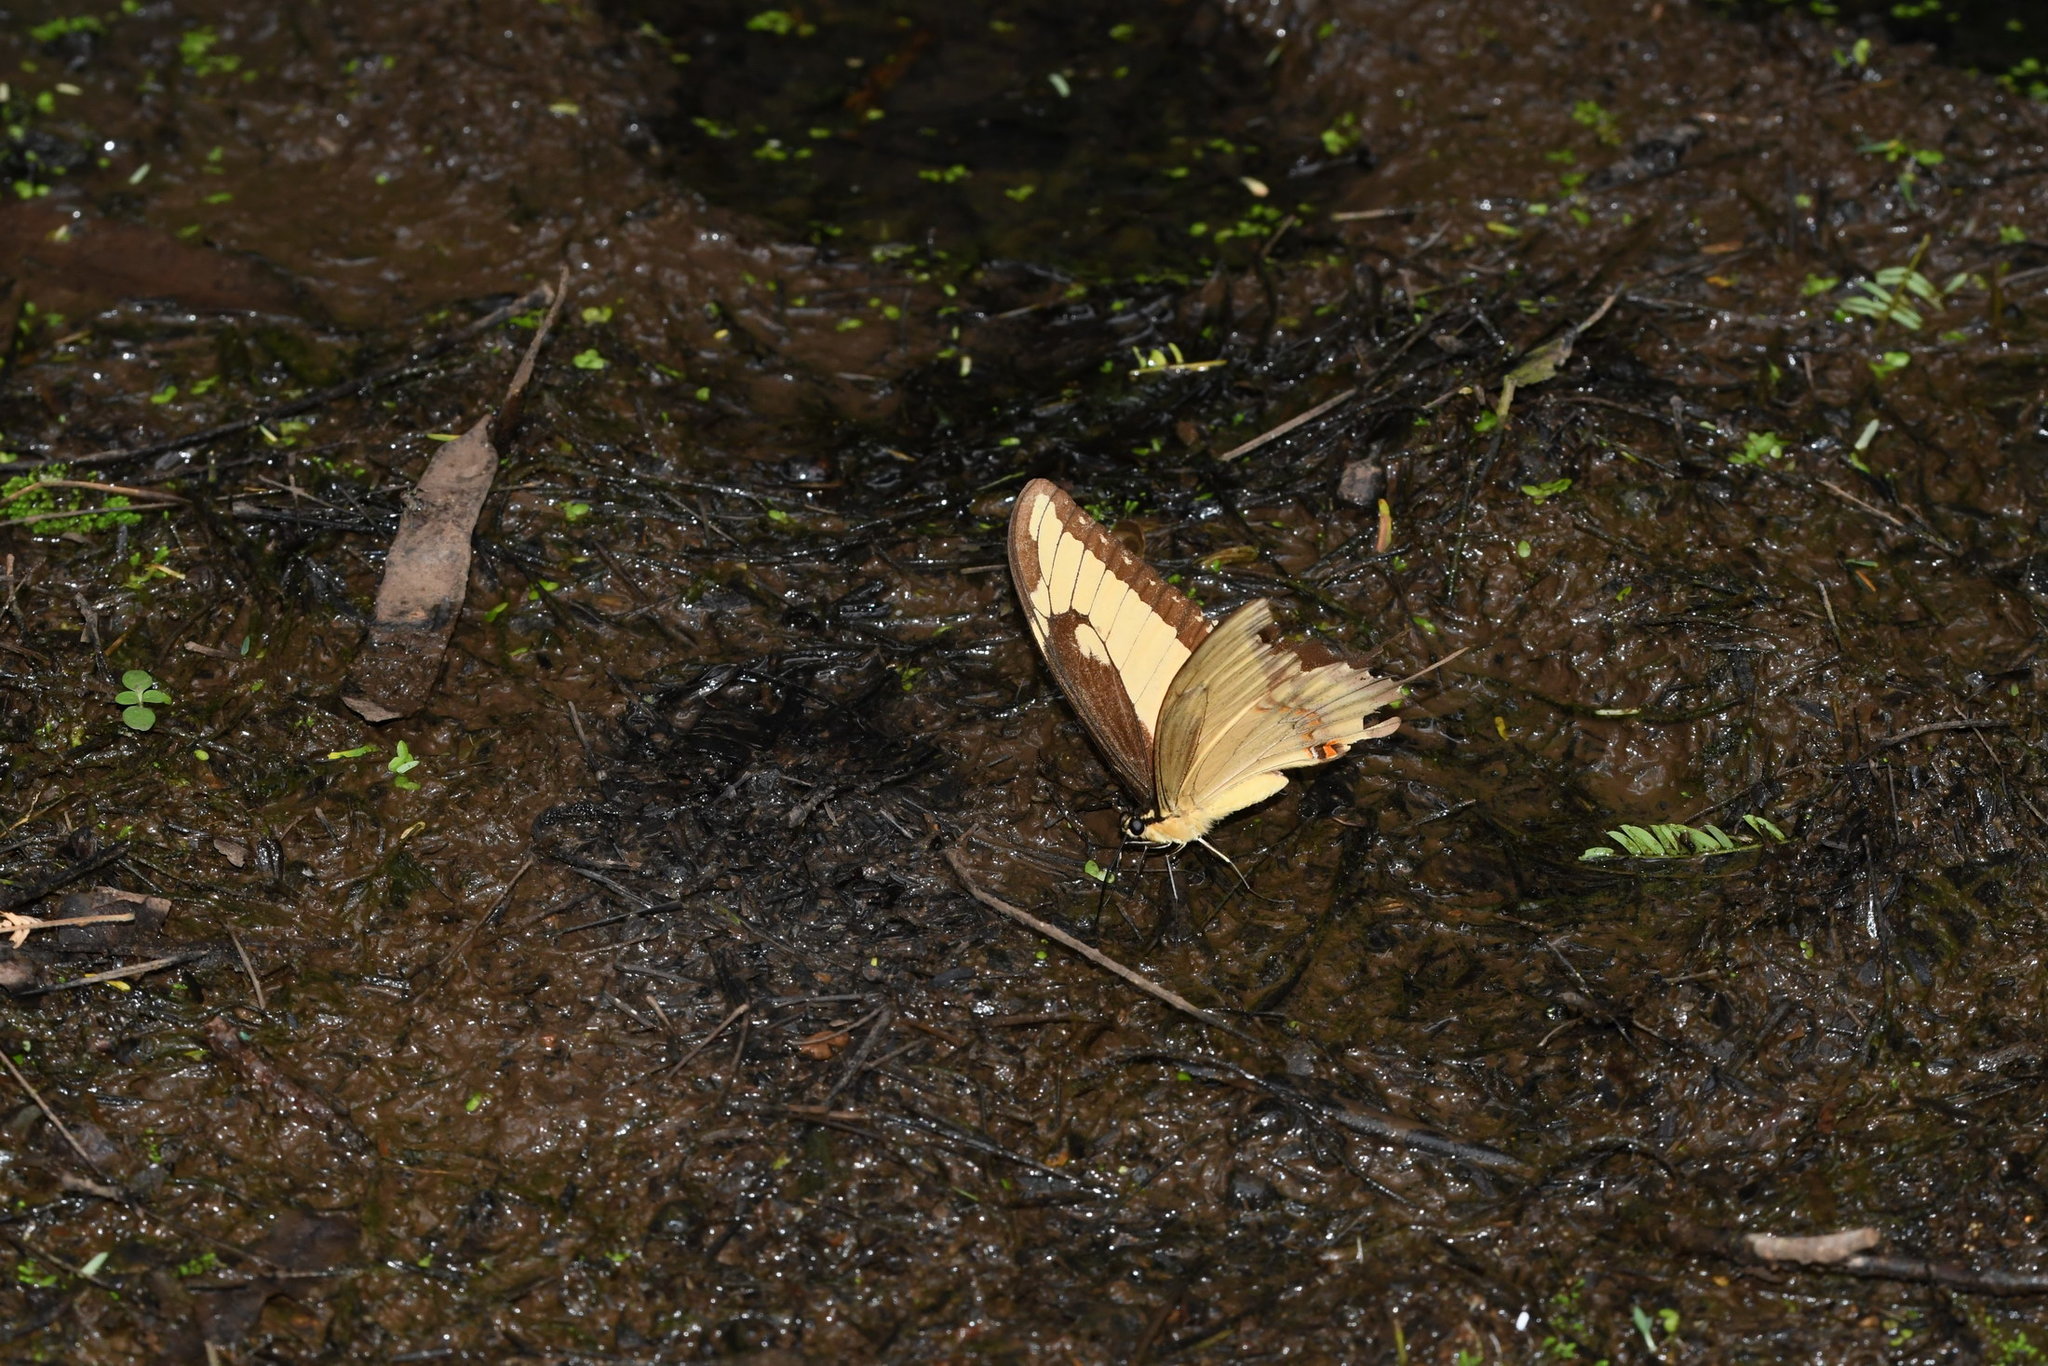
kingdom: Animalia
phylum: Arthropoda
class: Insecta
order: Lepidoptera
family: Papilionidae
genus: Papilio
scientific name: Papilio astyalus
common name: Astyalus swallowtail
